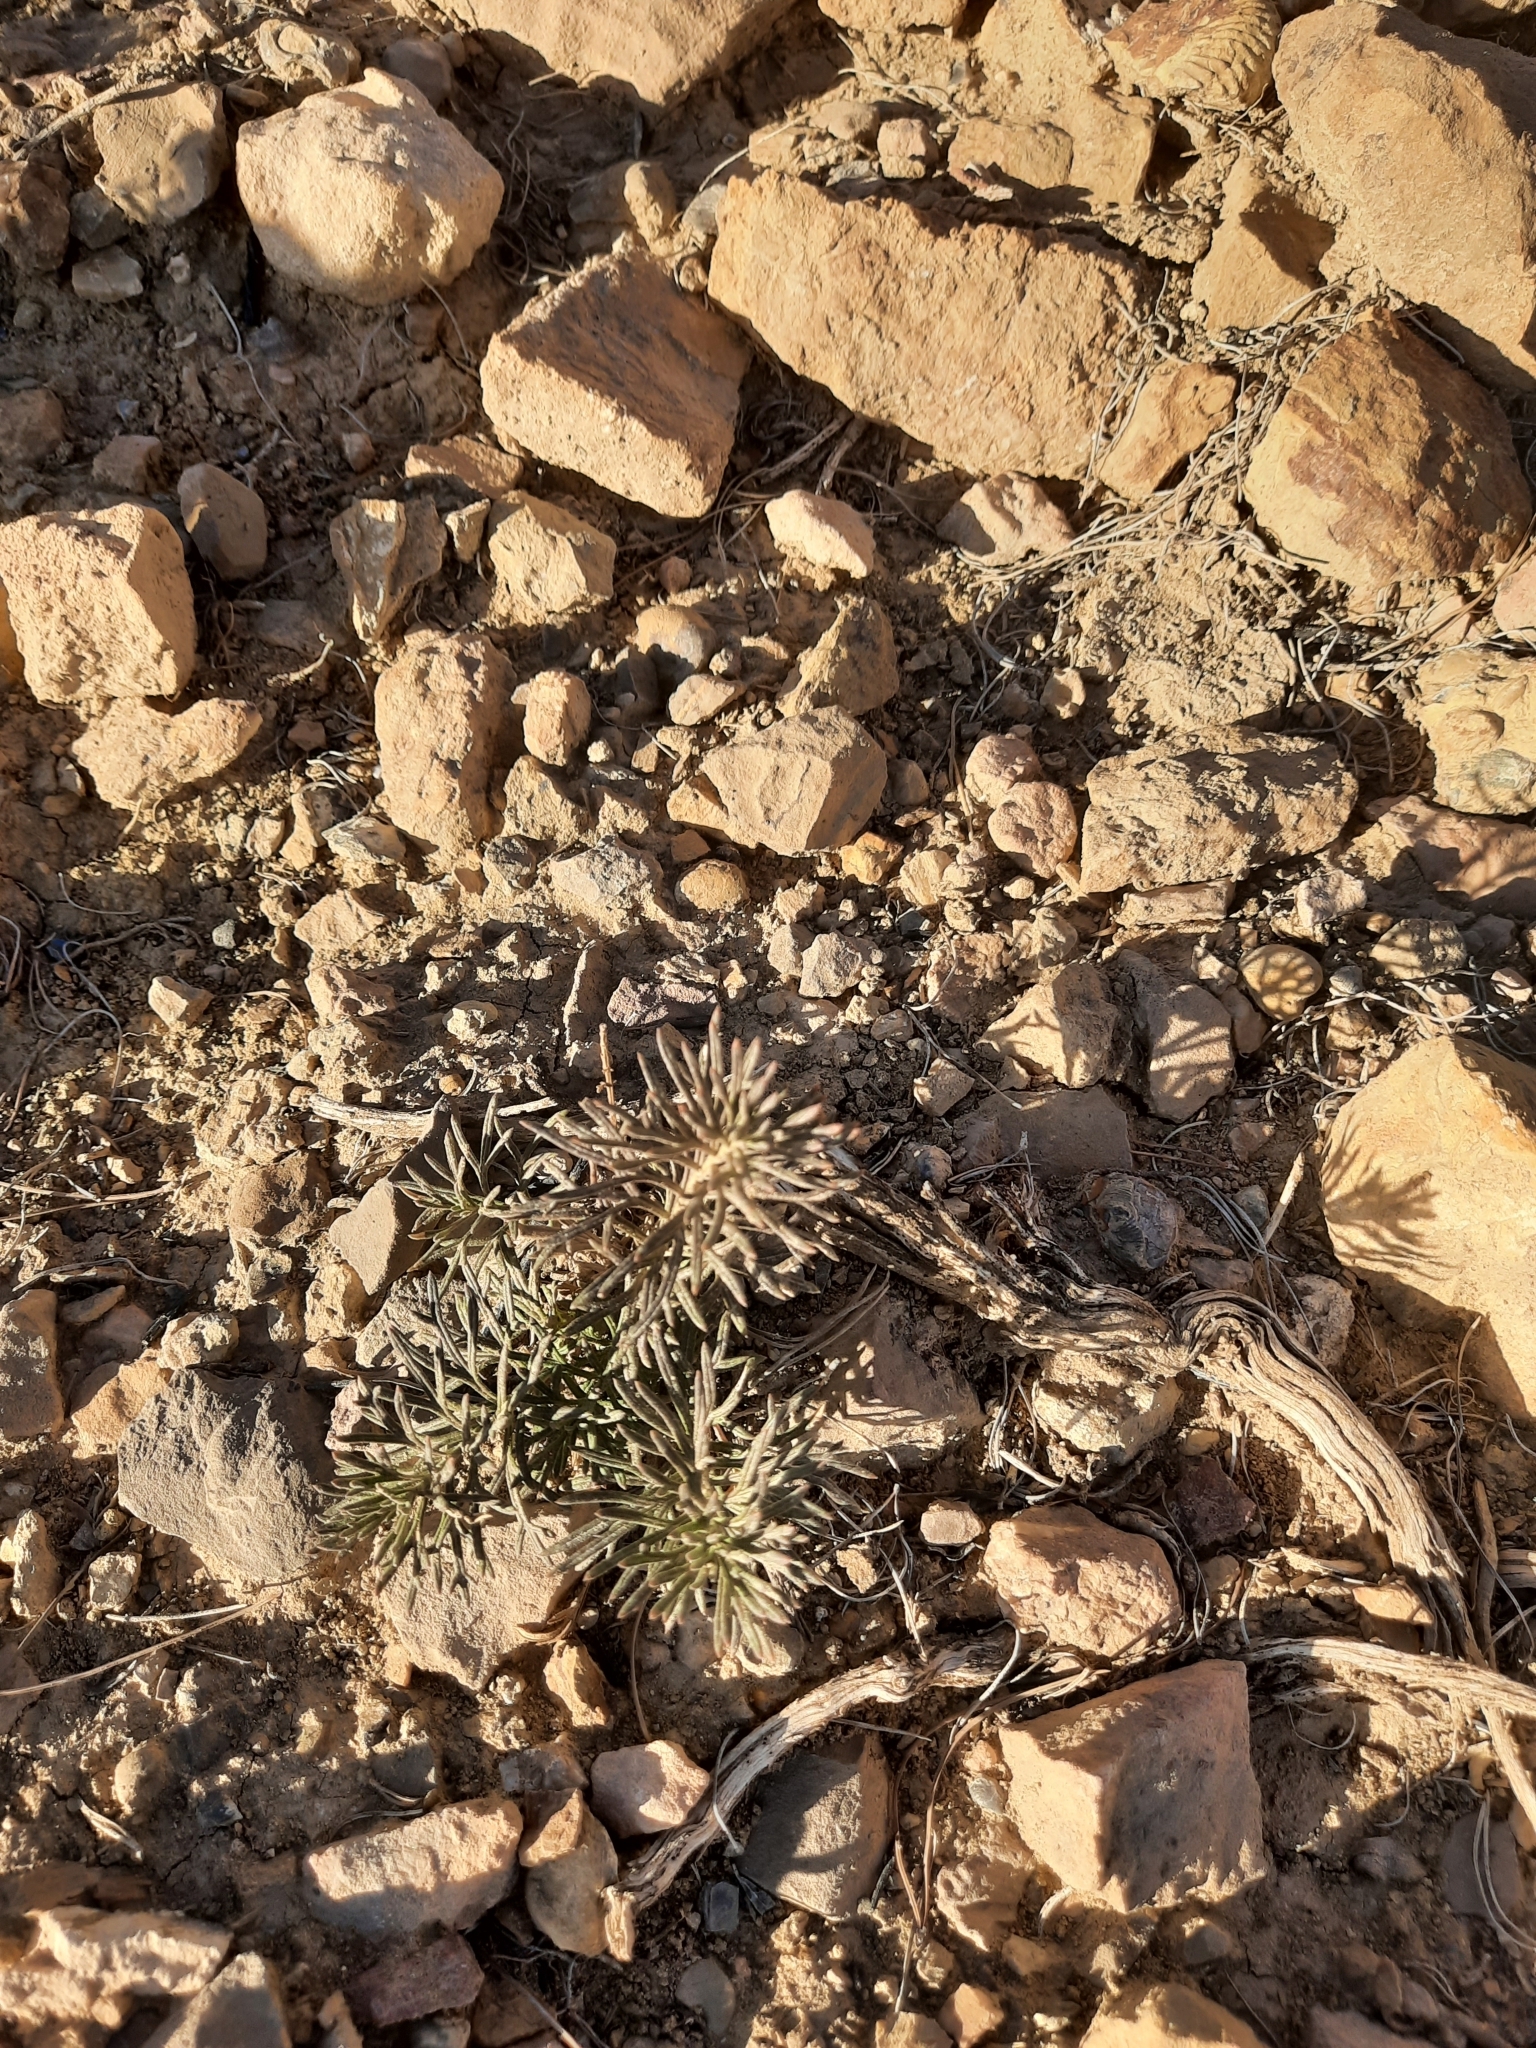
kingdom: Plantae
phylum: Tracheophyta
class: Magnoliopsida
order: Lamiales
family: Lamiaceae
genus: Teucrium
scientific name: Teucrium pseudochamaepitys
